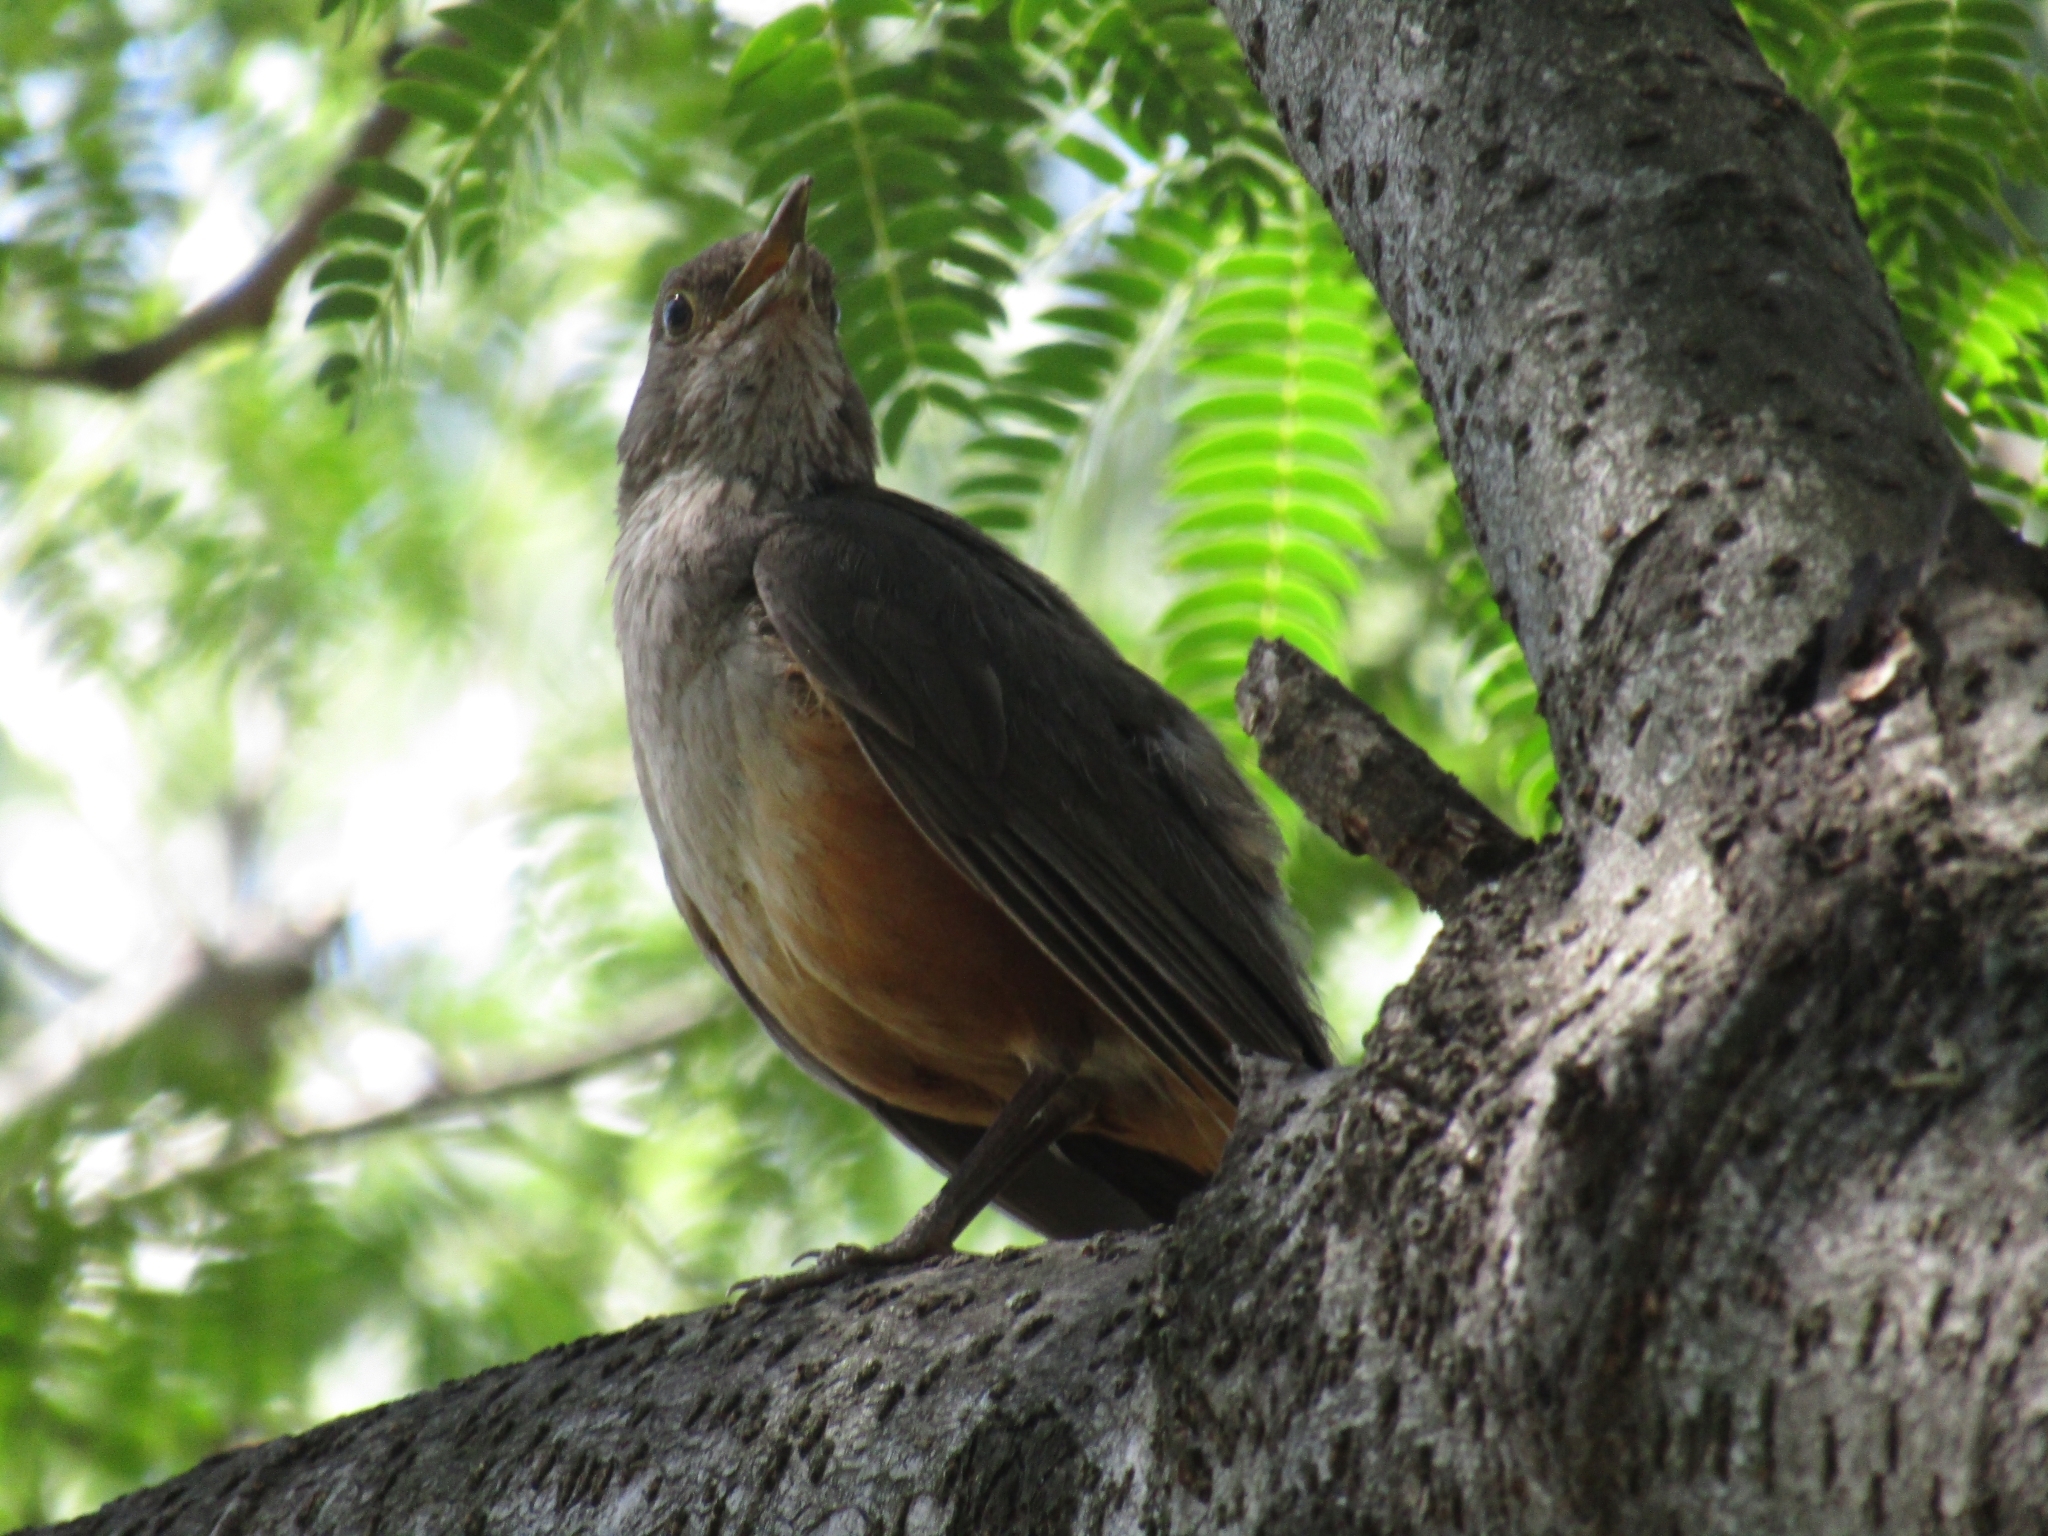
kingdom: Animalia
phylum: Chordata
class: Aves
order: Passeriformes
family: Turdidae
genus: Turdus
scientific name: Turdus rufiventris
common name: Rufous-bellied thrush
